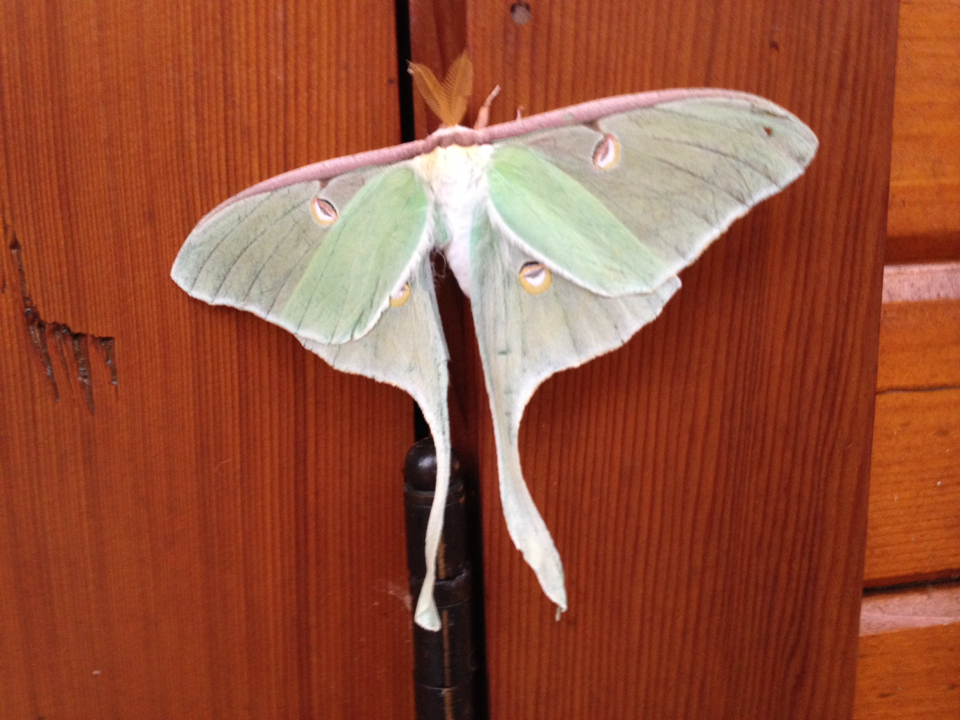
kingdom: Animalia
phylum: Arthropoda
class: Insecta
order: Lepidoptera
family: Saturniidae
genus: Actias
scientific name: Actias luna
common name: Luna moth
